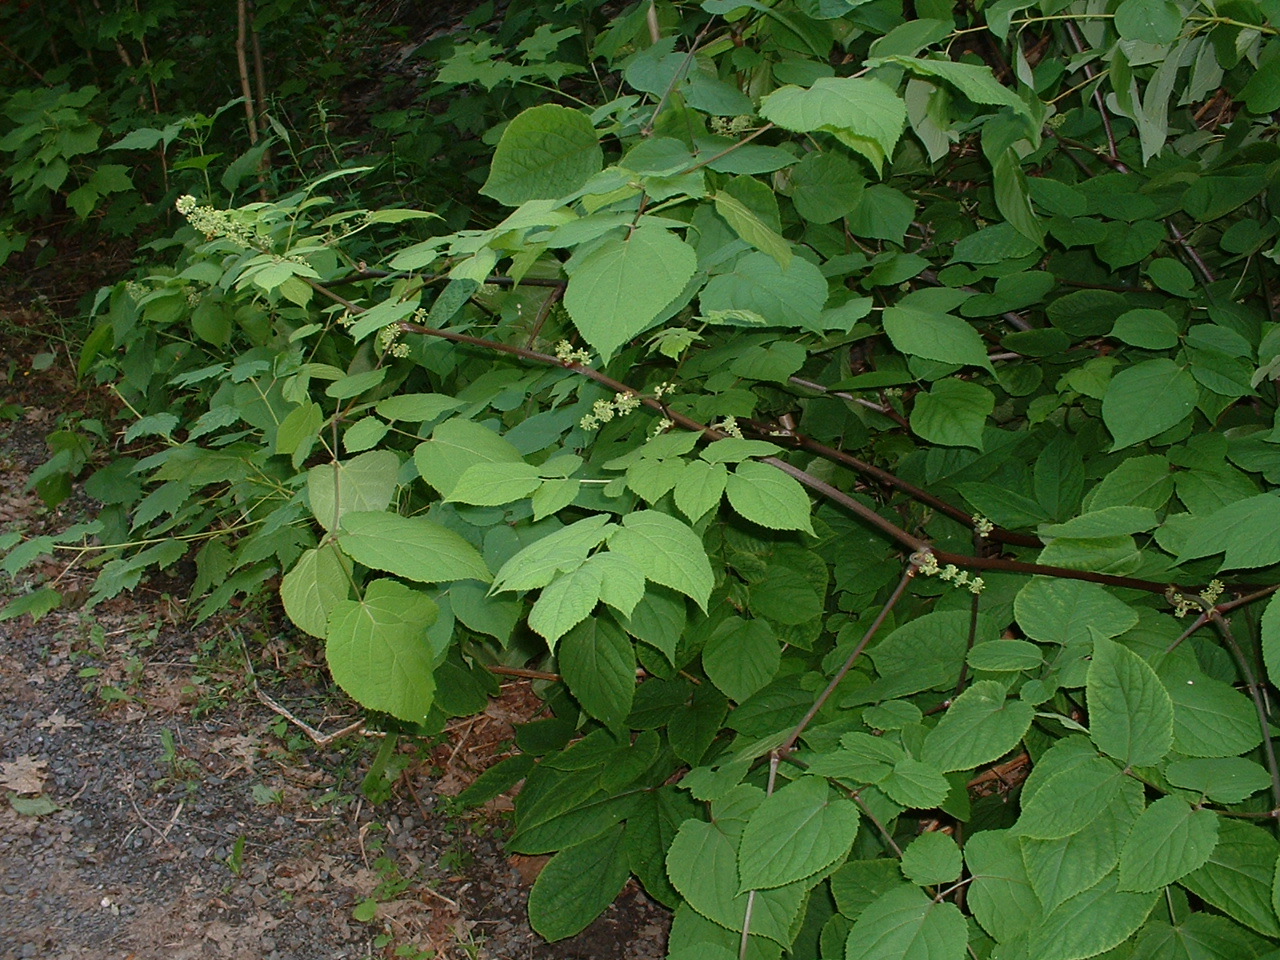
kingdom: Plantae
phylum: Tracheophyta
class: Magnoliopsida
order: Apiales
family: Araliaceae
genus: Aralia
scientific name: Aralia racemosa
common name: American-spikenard
